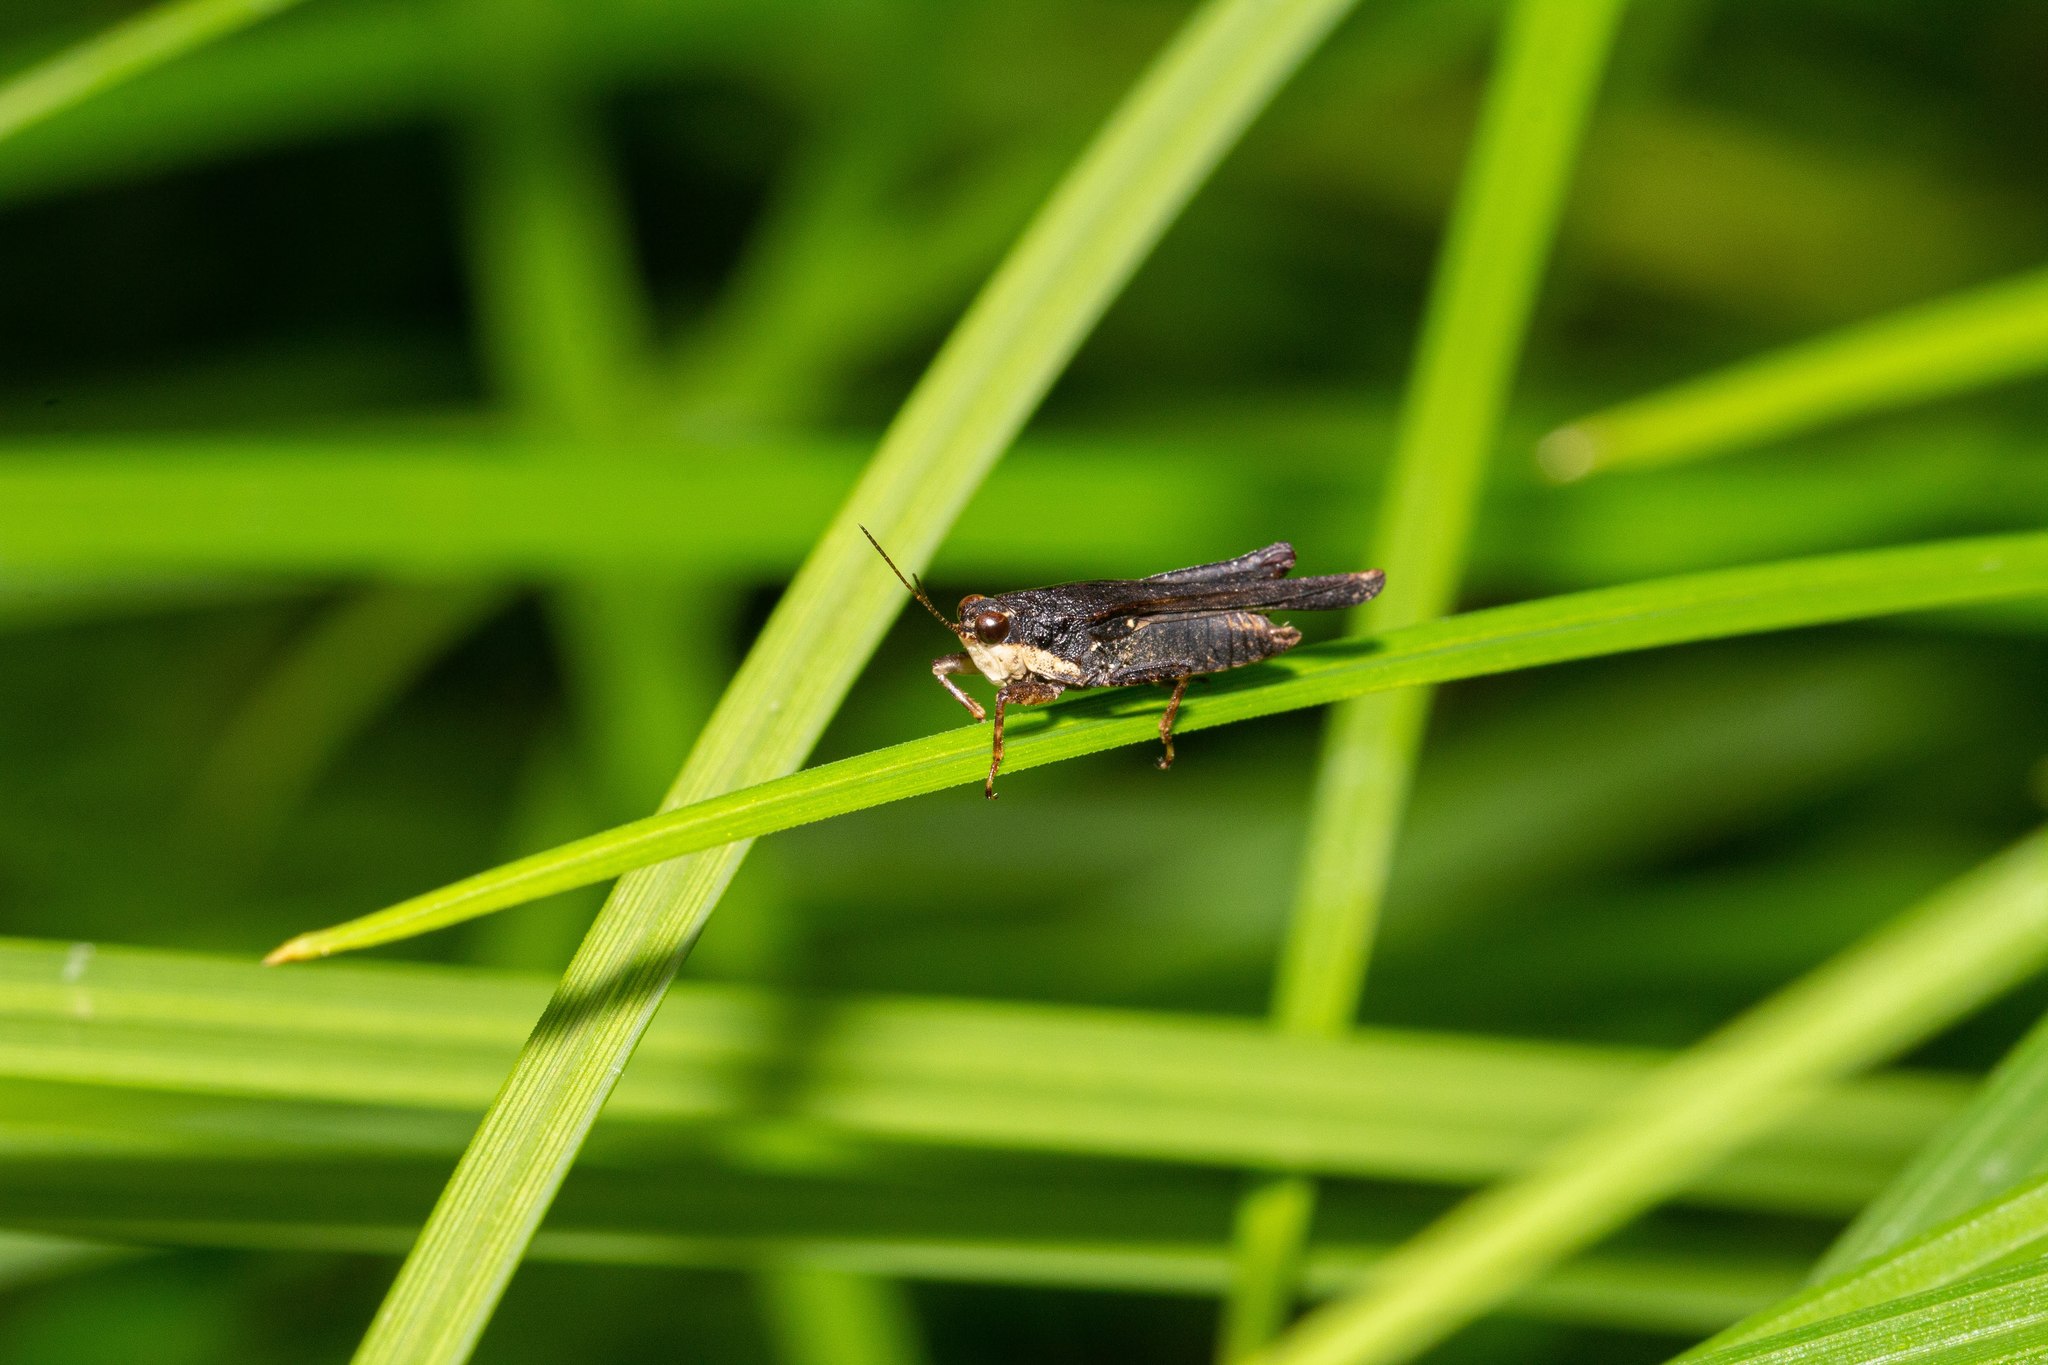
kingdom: Animalia
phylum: Arthropoda
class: Insecta
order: Orthoptera
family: Tetrigidae
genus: Tettigidea
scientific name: Tettigidea laterale
